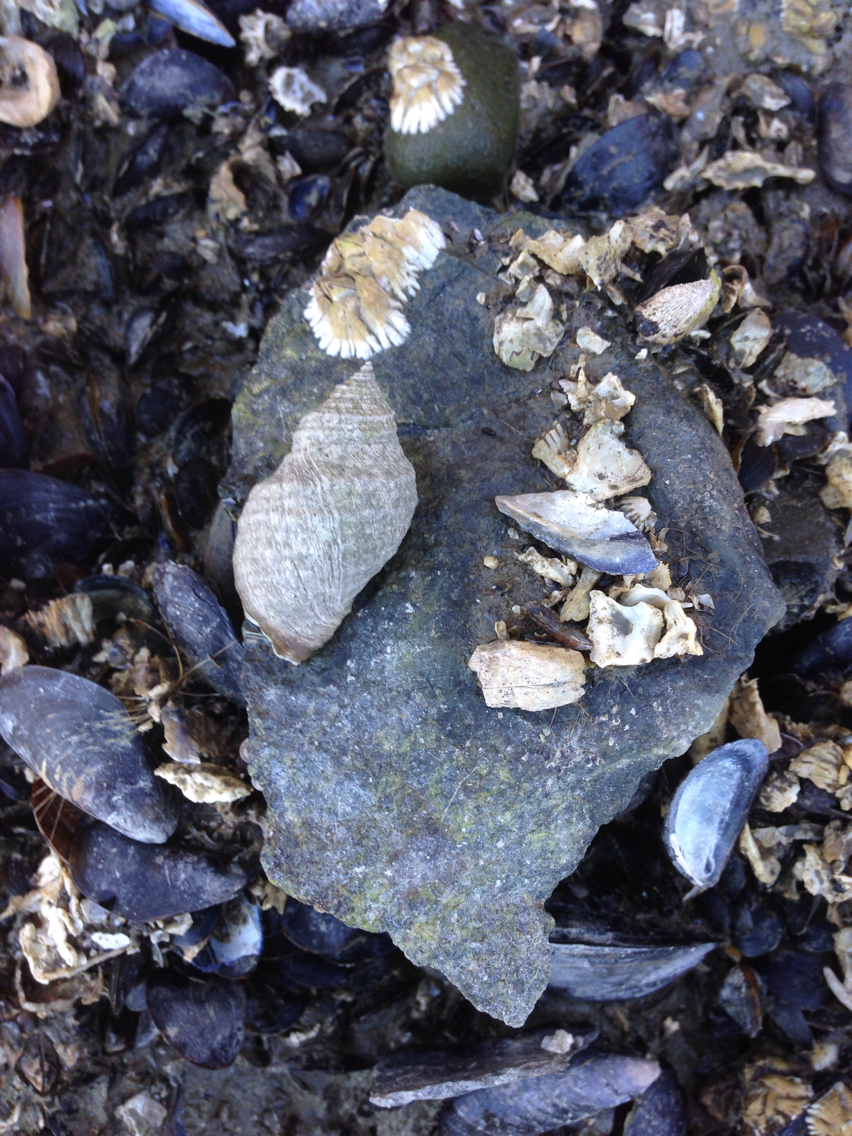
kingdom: Animalia
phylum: Mollusca
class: Gastropoda
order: Neogastropoda
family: Muricidae
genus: Nucella
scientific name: Nucella lapillus
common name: Dog whelk
